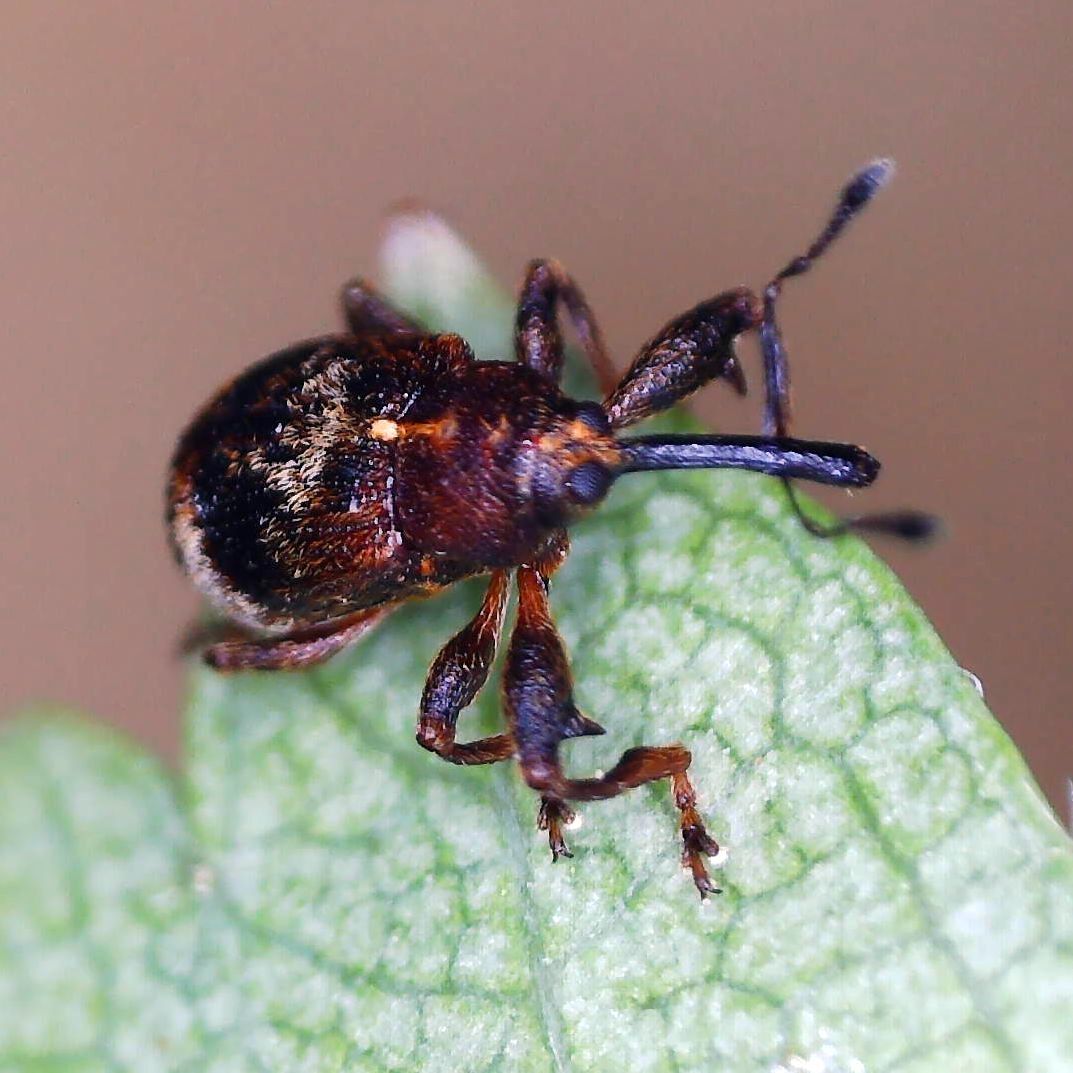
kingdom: Animalia
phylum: Arthropoda
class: Insecta
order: Coleoptera
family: Curculionidae
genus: Anthonomus
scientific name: Anthonomus bituberculatus
